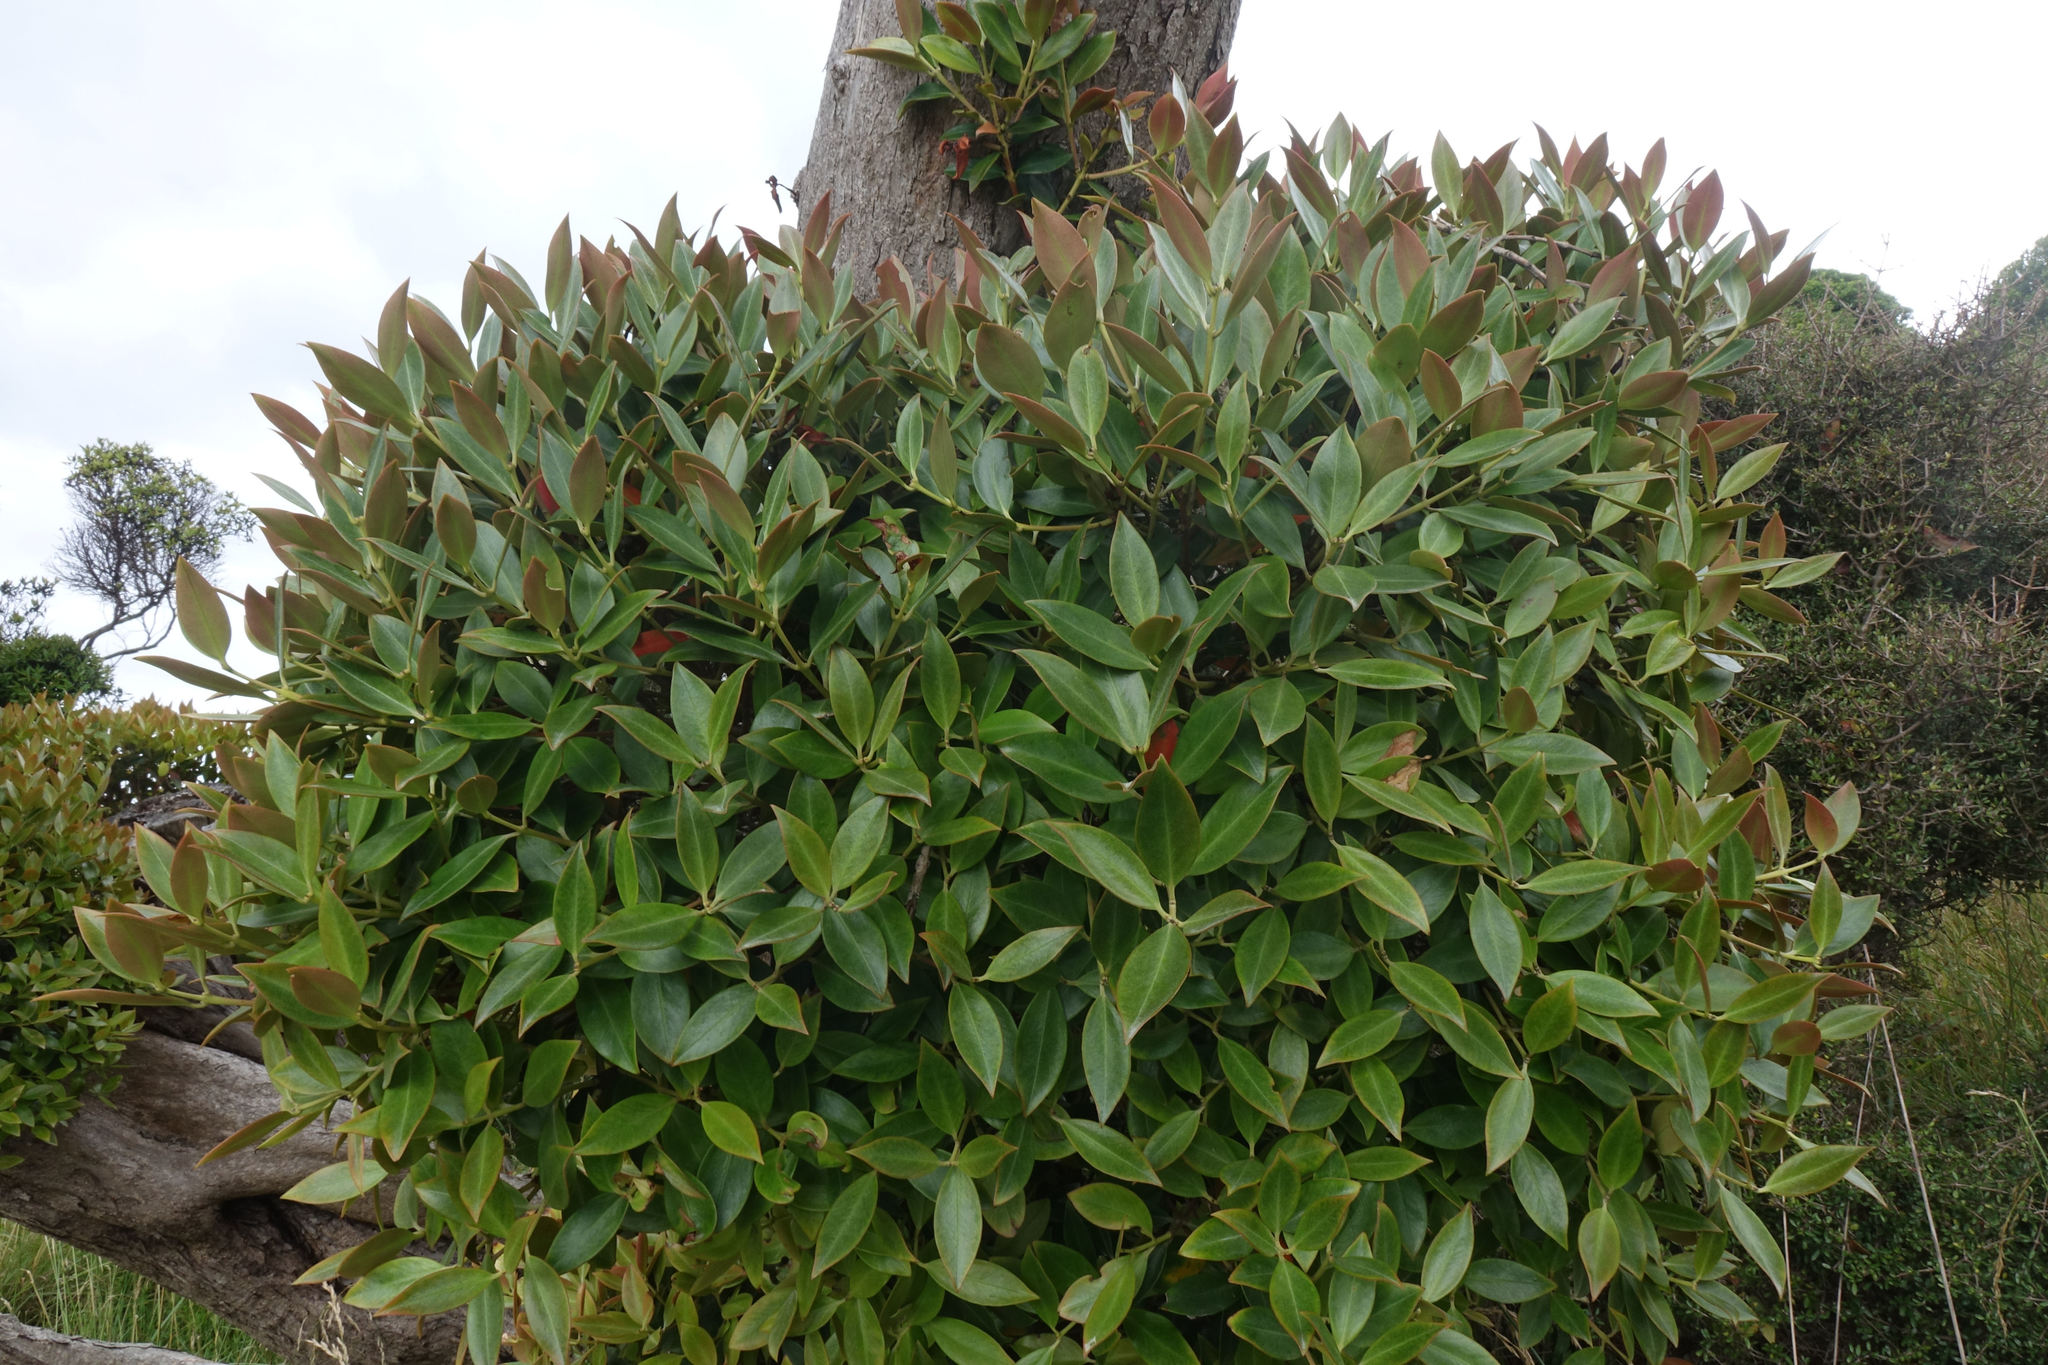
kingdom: Plantae
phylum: Tracheophyta
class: Magnoliopsida
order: Myrtales
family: Myrtaceae
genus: Metrosideros
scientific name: Metrosideros umbellata
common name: Southern rata
